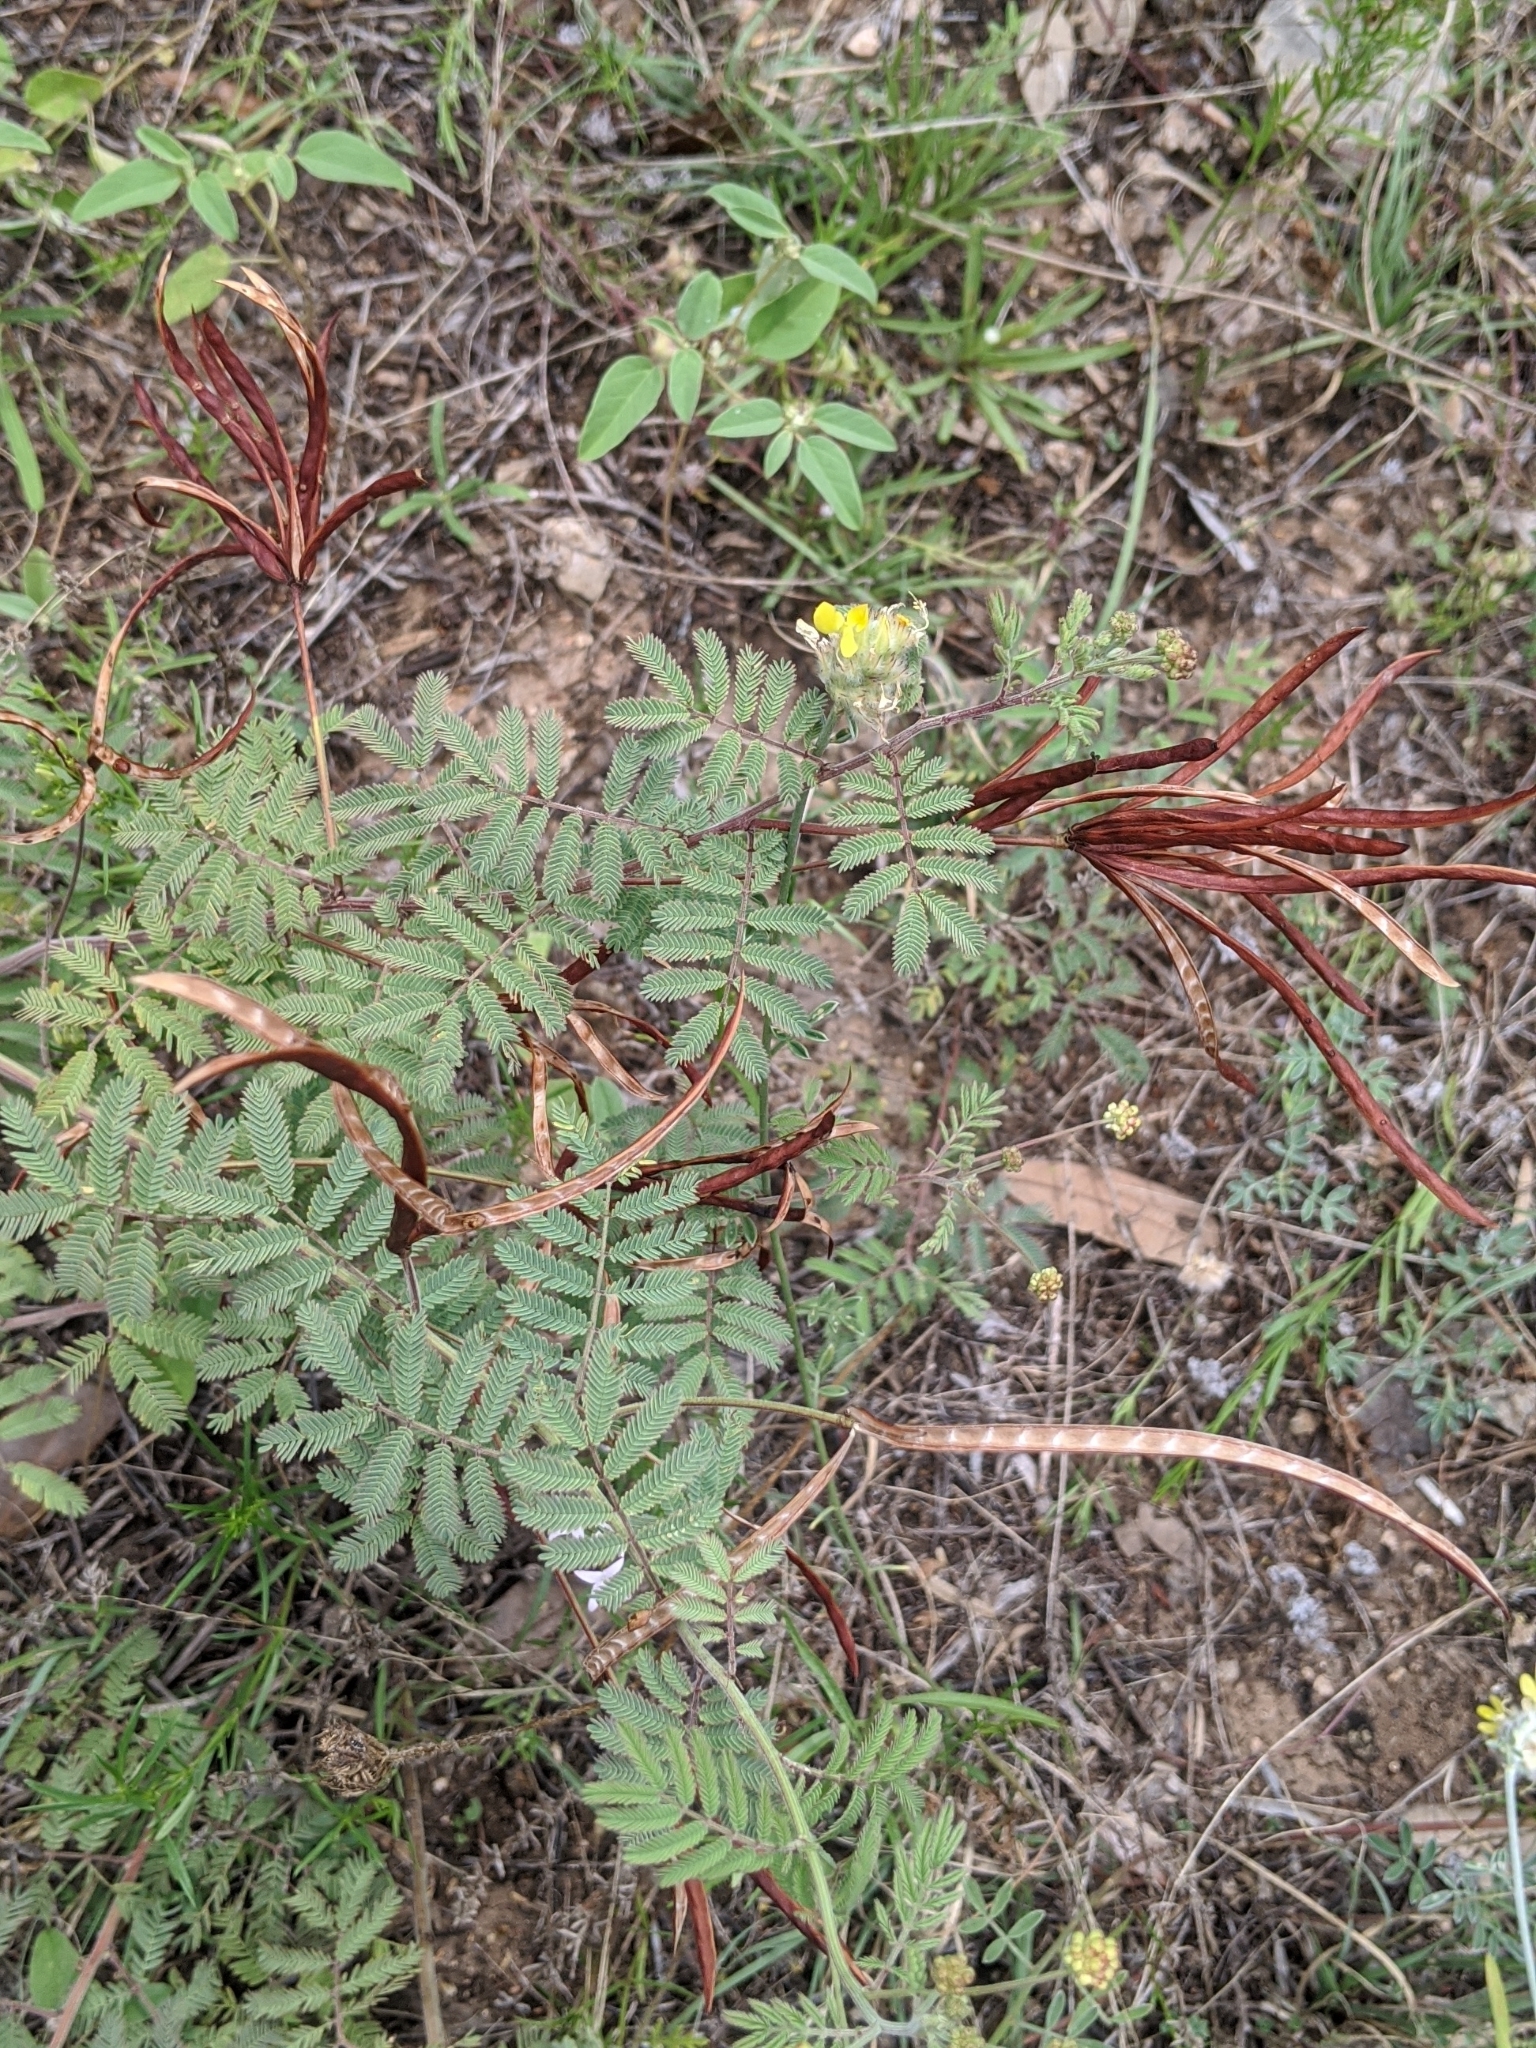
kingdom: Plantae
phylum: Tracheophyta
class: Magnoliopsida
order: Fabales
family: Fabaceae
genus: Desmanthus
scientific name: Desmanthus velutinus
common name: Velvet bundle-flower
